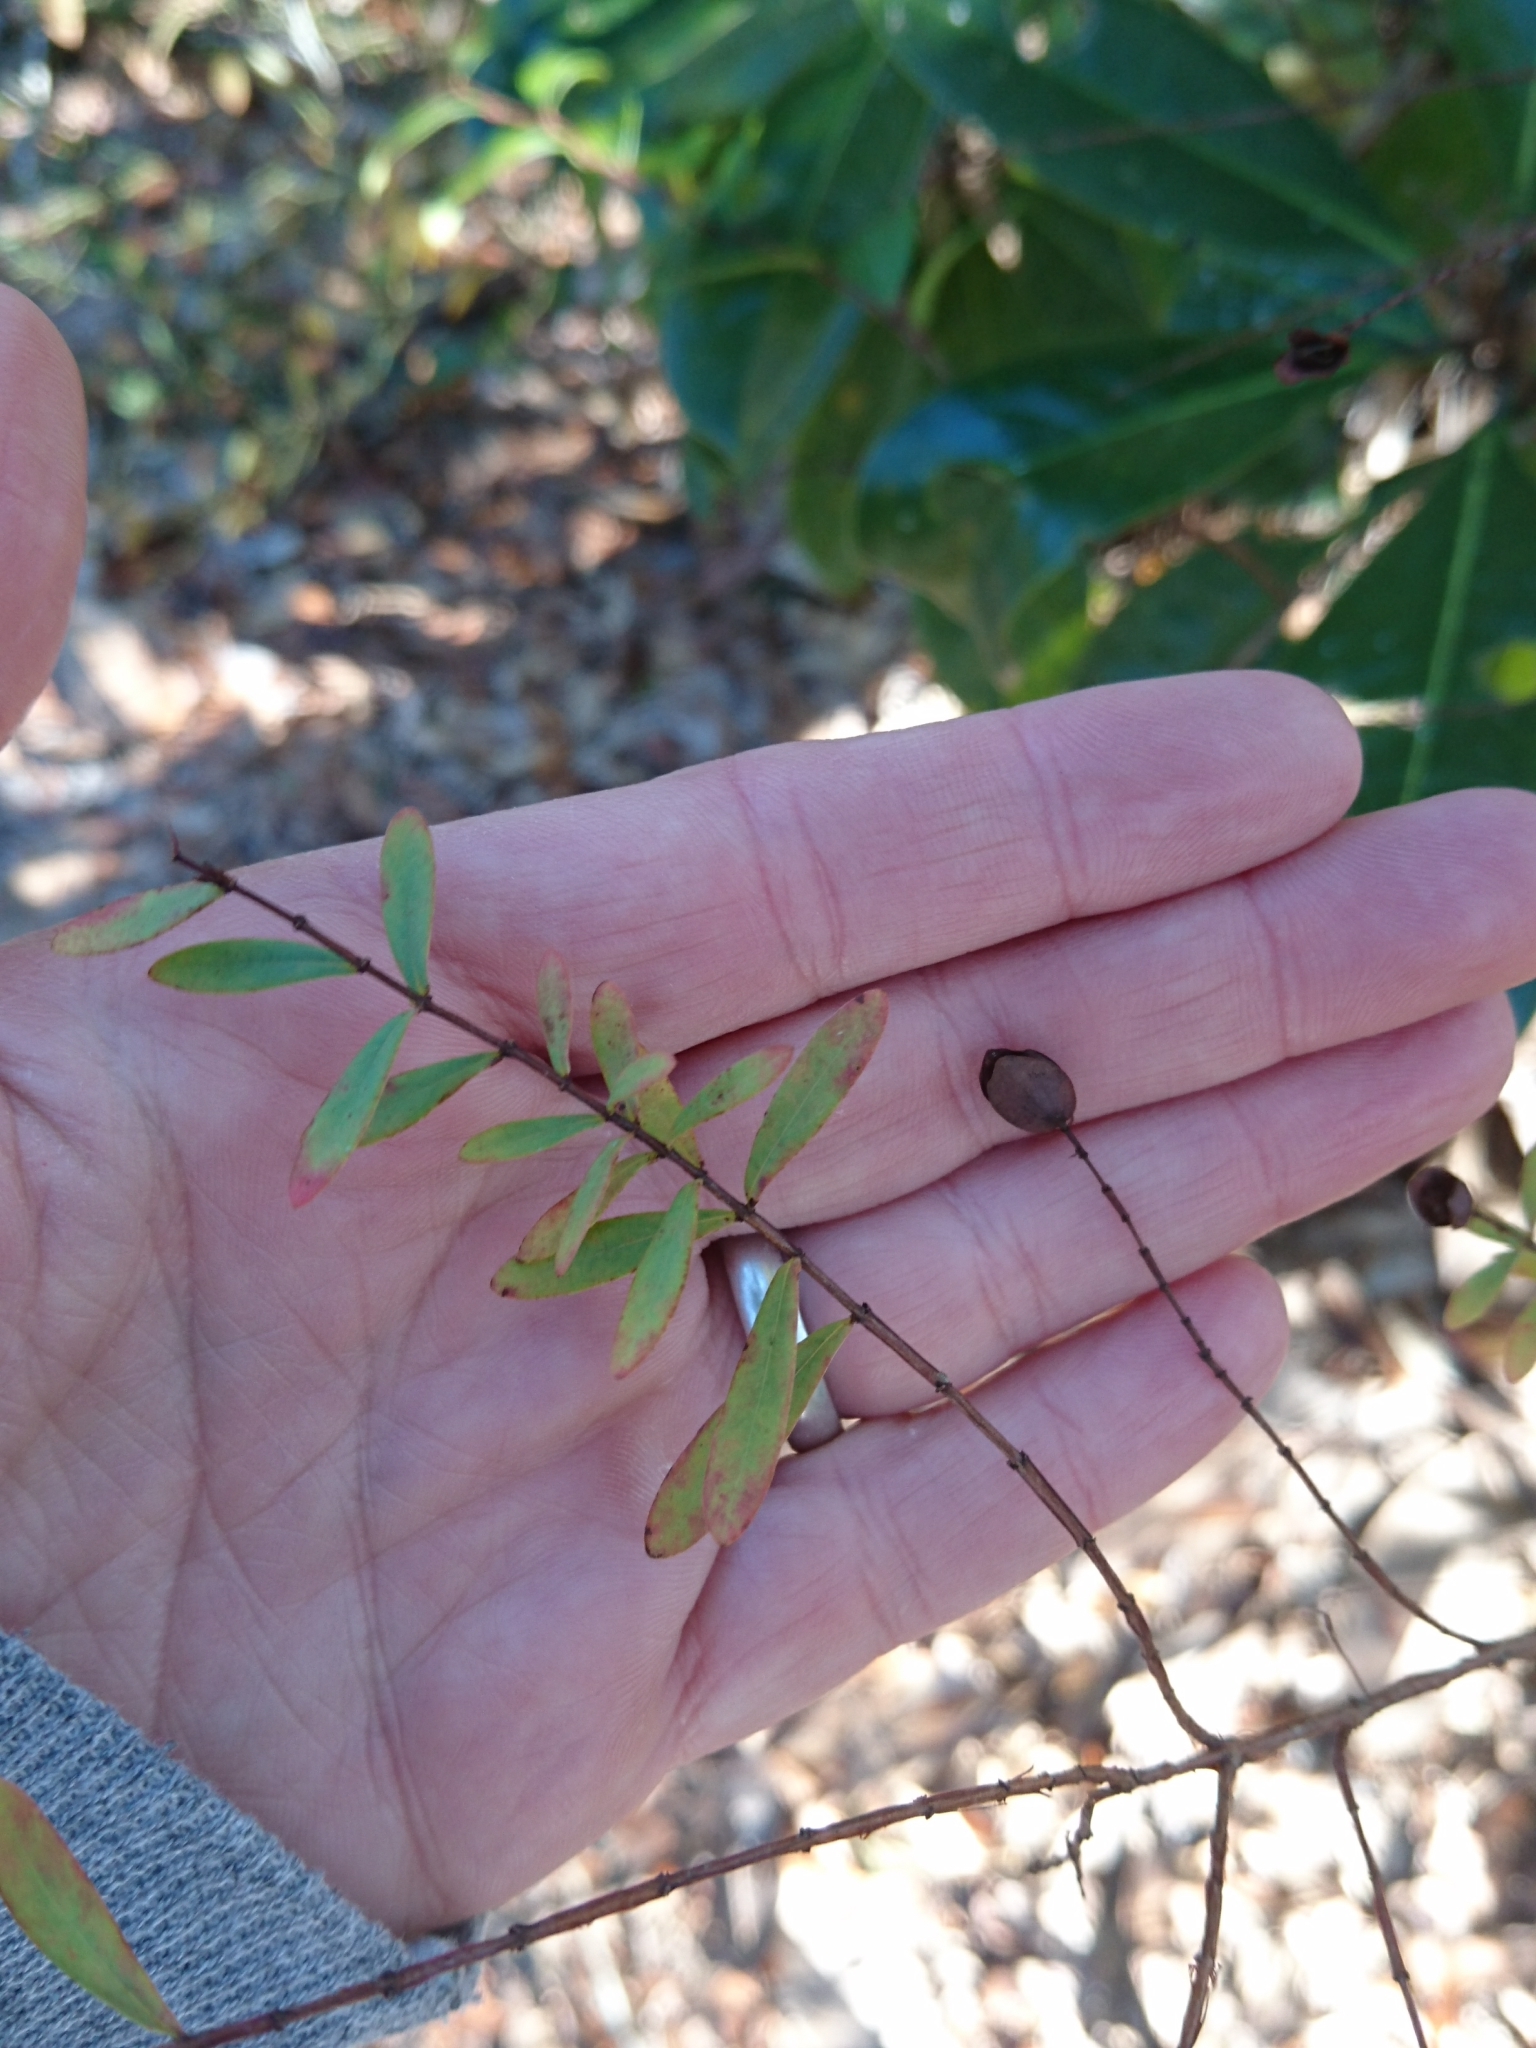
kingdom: Plantae
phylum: Tracheophyta
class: Magnoliopsida
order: Malpighiales
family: Hypericaceae
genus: Hypericum
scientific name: Hypericum hypericoides
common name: St. andrew's cross
